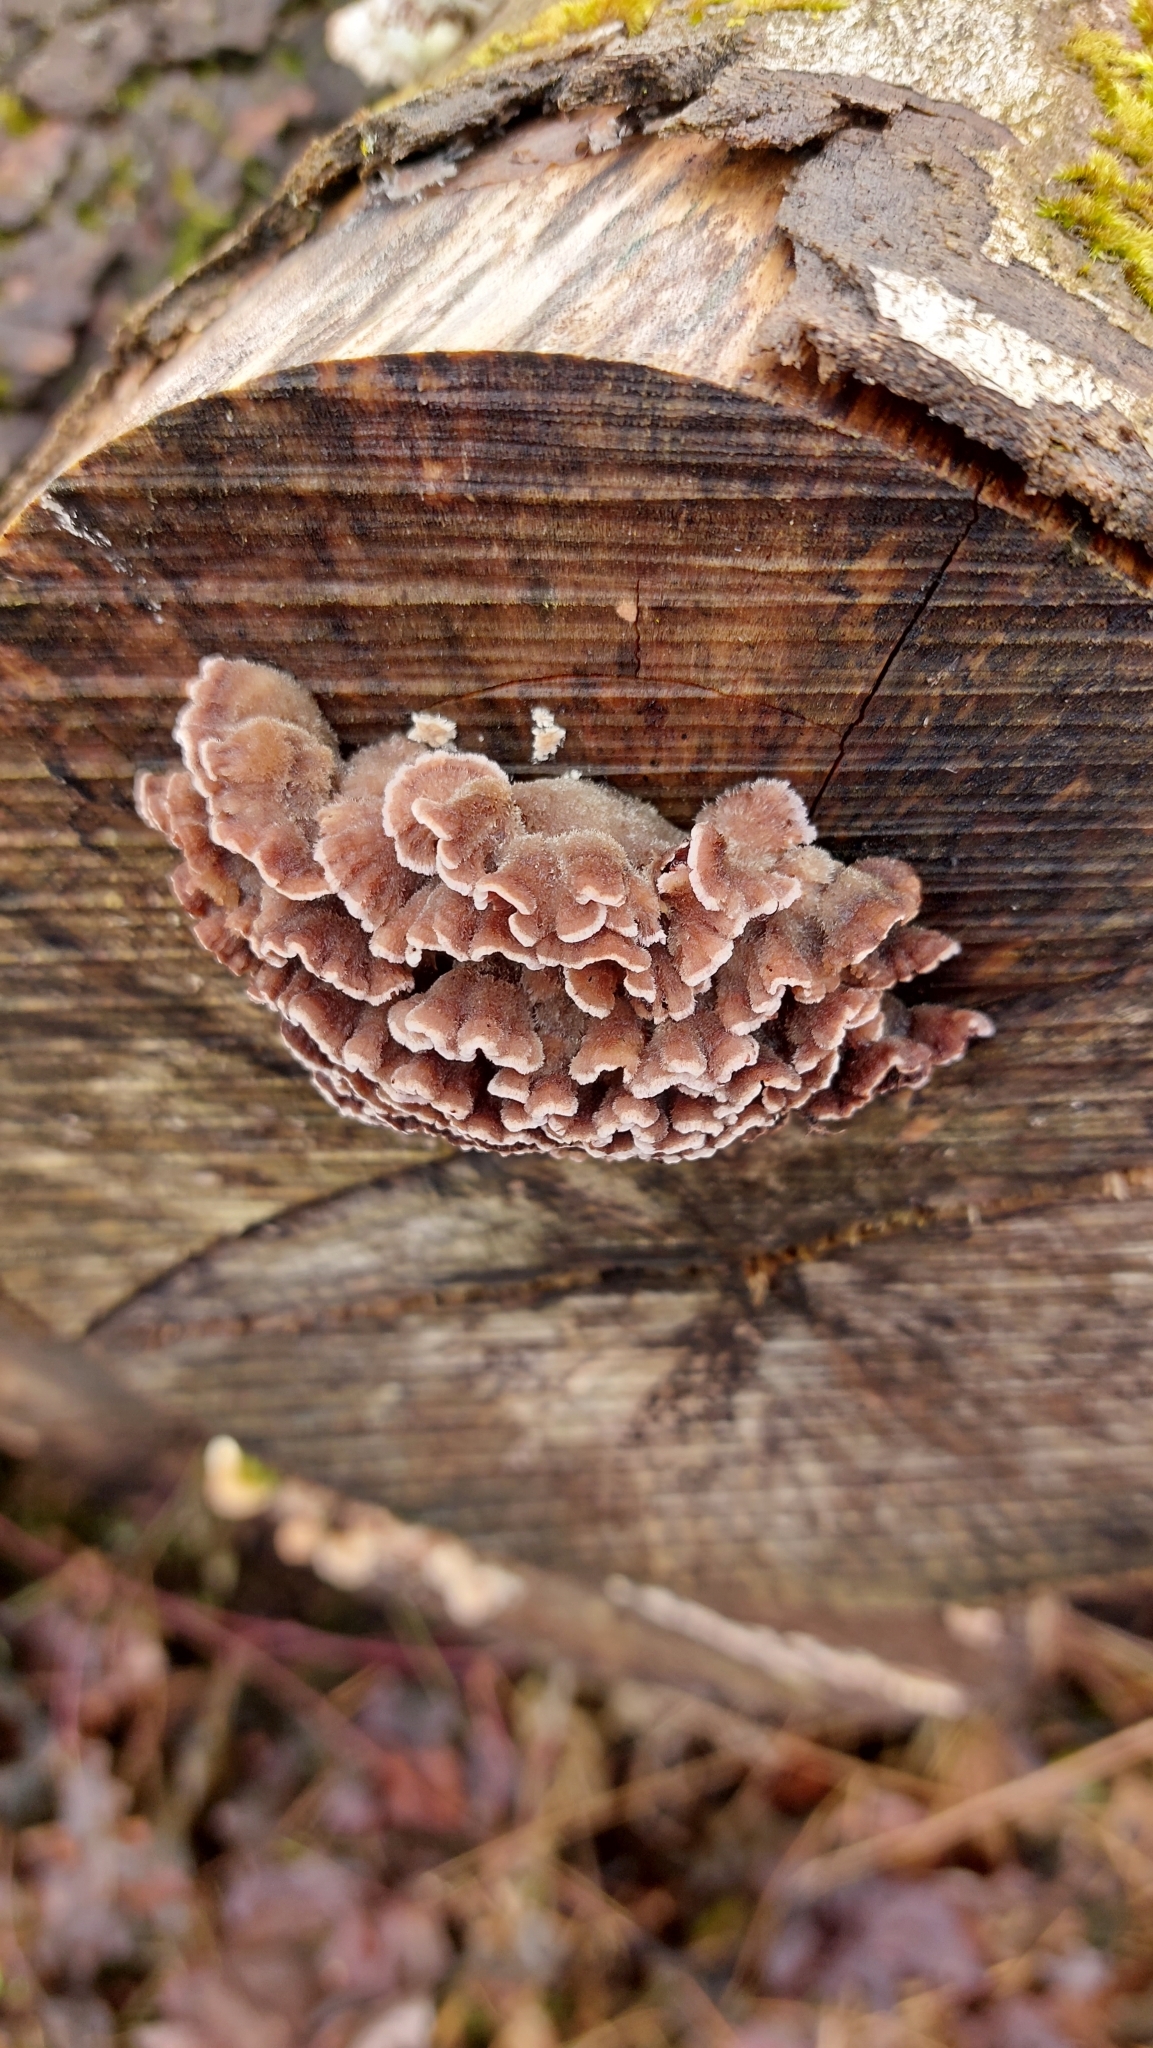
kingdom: Fungi
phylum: Basidiomycota
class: Agaricomycetes
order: Agaricales
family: Cyphellaceae
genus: Chondrostereum
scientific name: Chondrostereum purpureum
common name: Silver leaf disease
